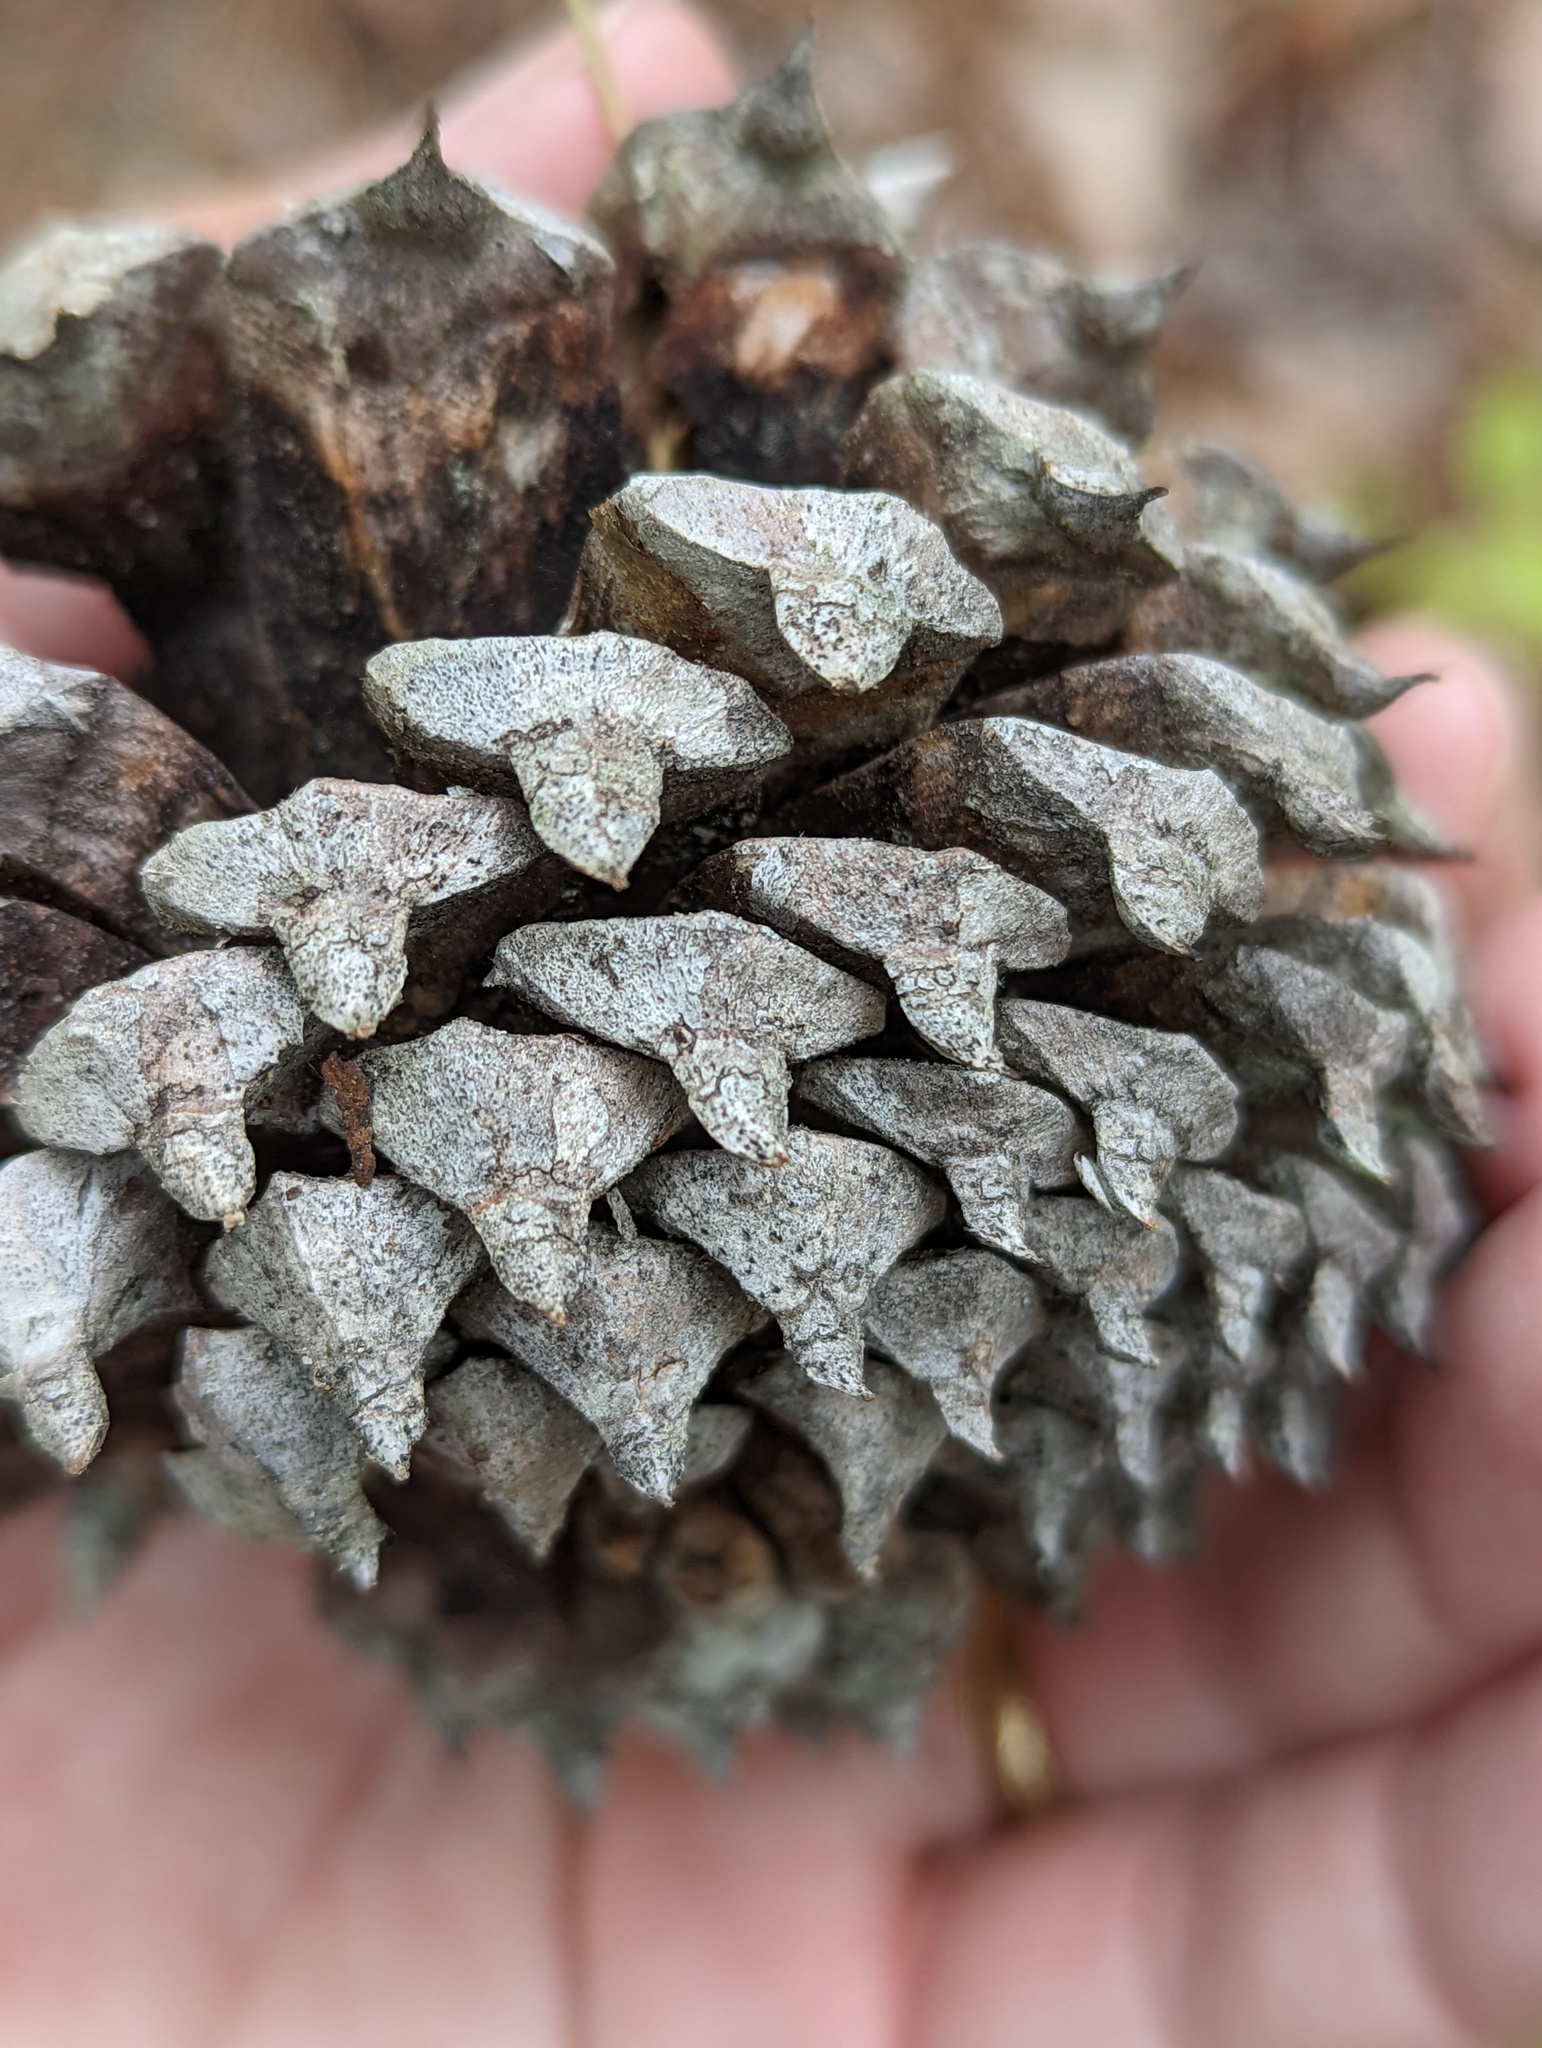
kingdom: Plantae
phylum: Tracheophyta
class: Pinopsida
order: Pinales
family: Pinaceae
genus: Pinus
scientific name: Pinus pungens
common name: Hickory pine
